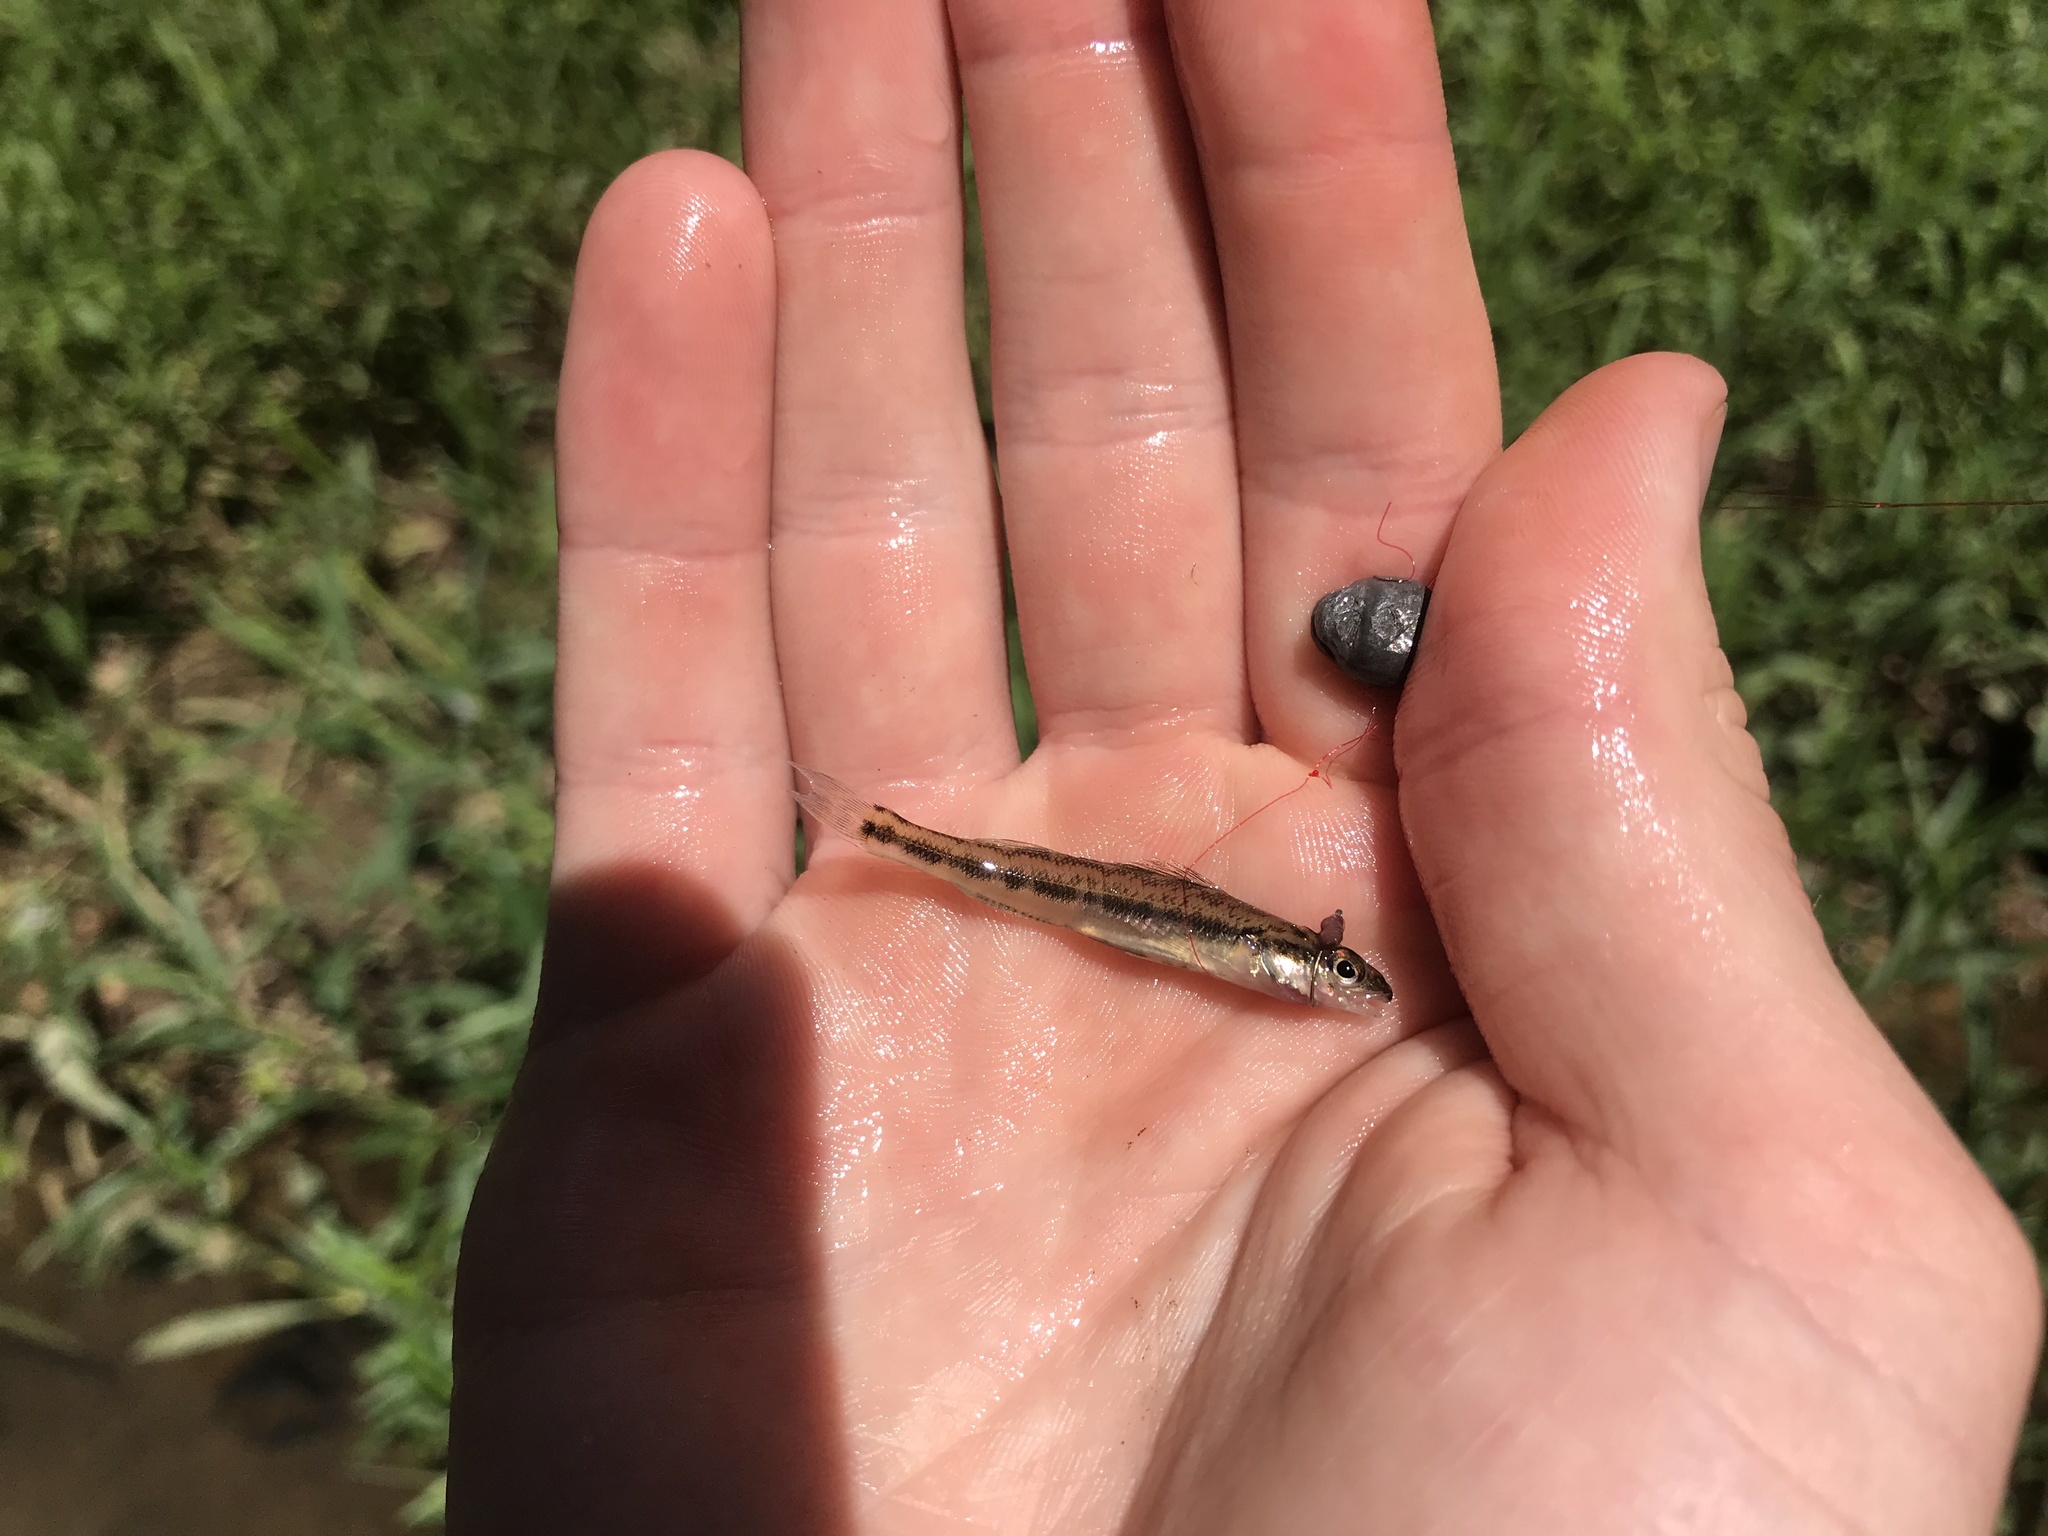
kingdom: Animalia
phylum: Chordata
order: Perciformes
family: Percidae
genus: Percina
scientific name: Percina nevisense
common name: Chainback darter
